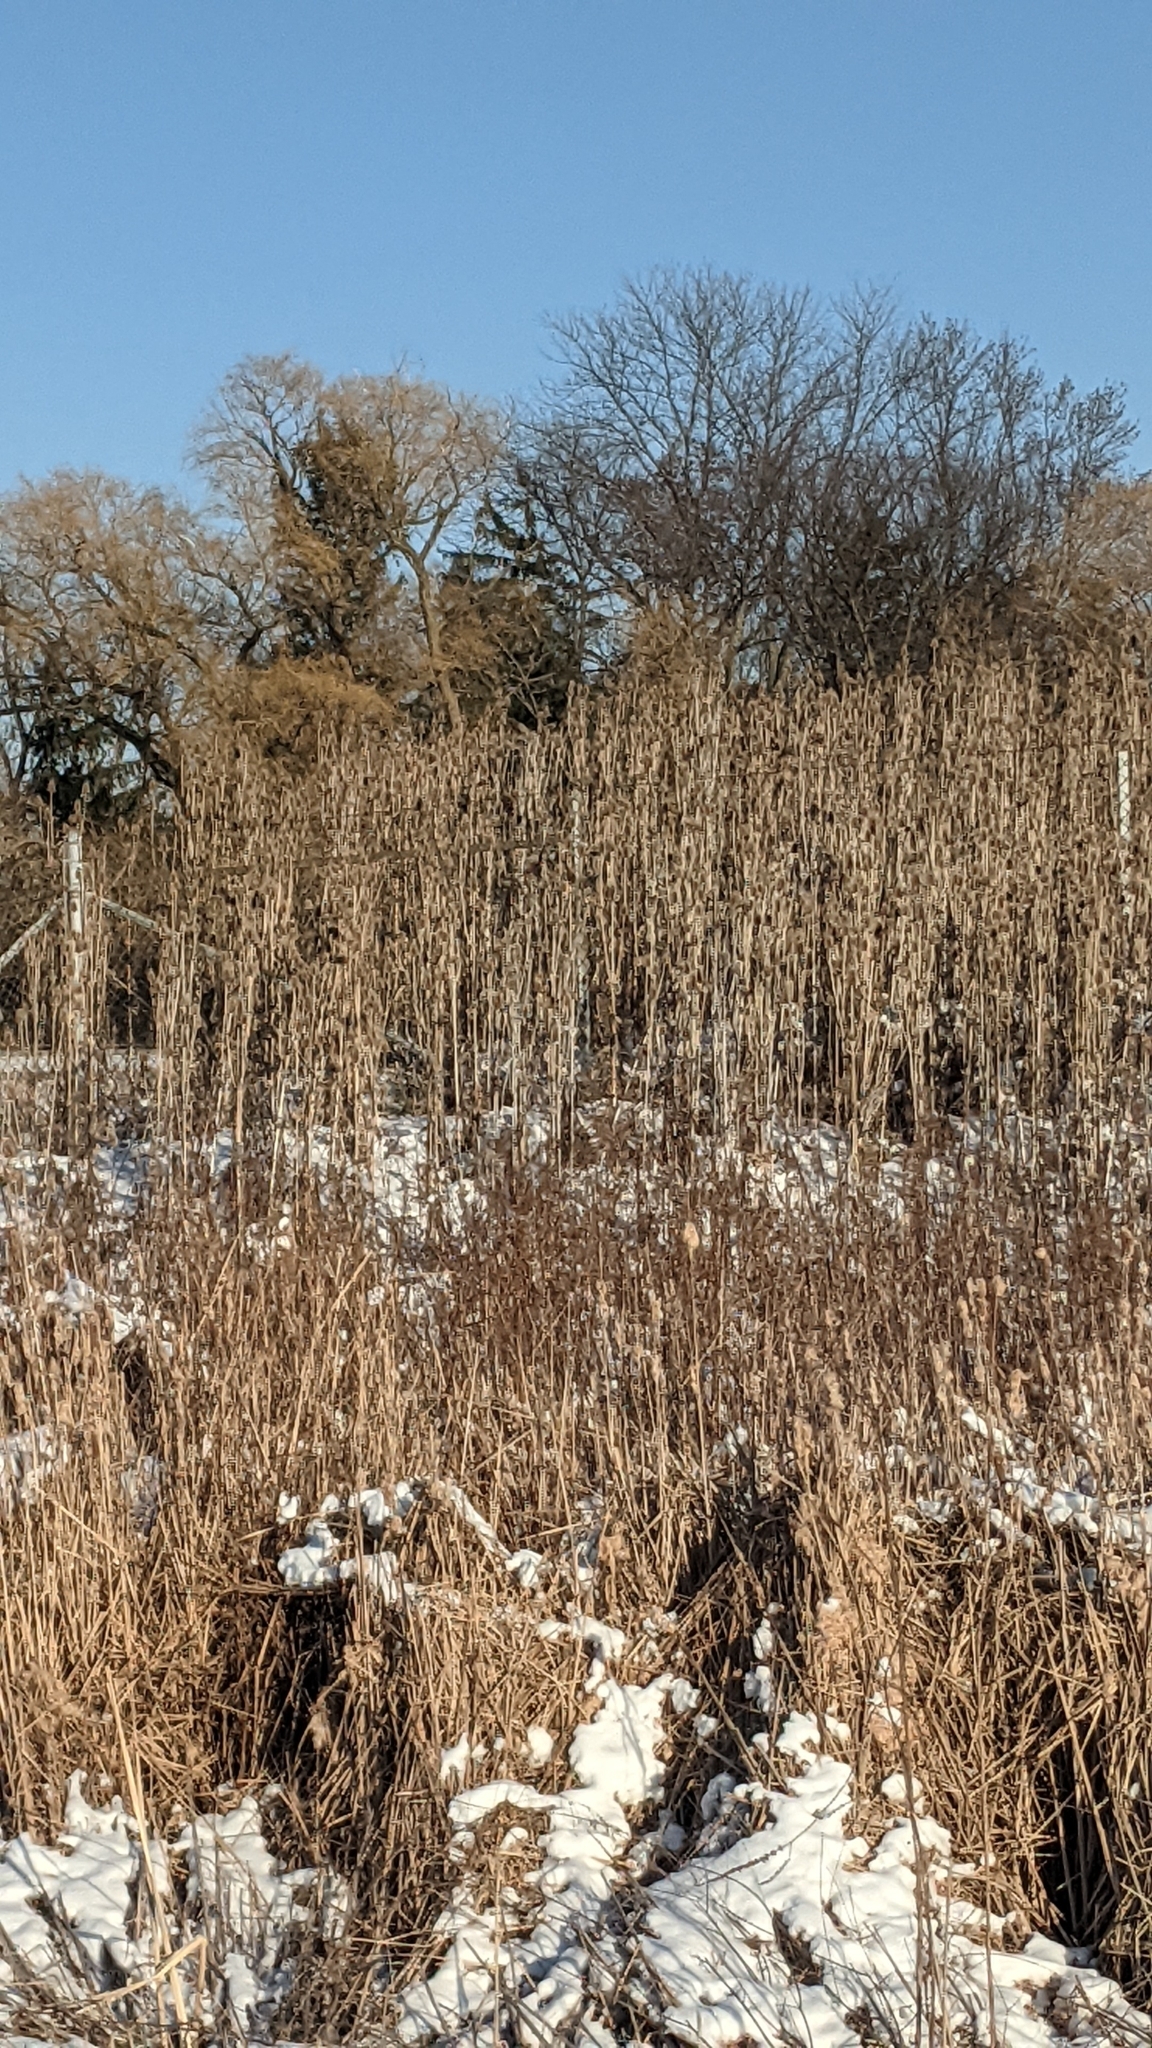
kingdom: Plantae
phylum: Tracheophyta
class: Magnoliopsida
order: Dipsacales
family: Caprifoliaceae
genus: Dipsacus
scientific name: Dipsacus laciniatus
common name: Cut-leaved teasel
